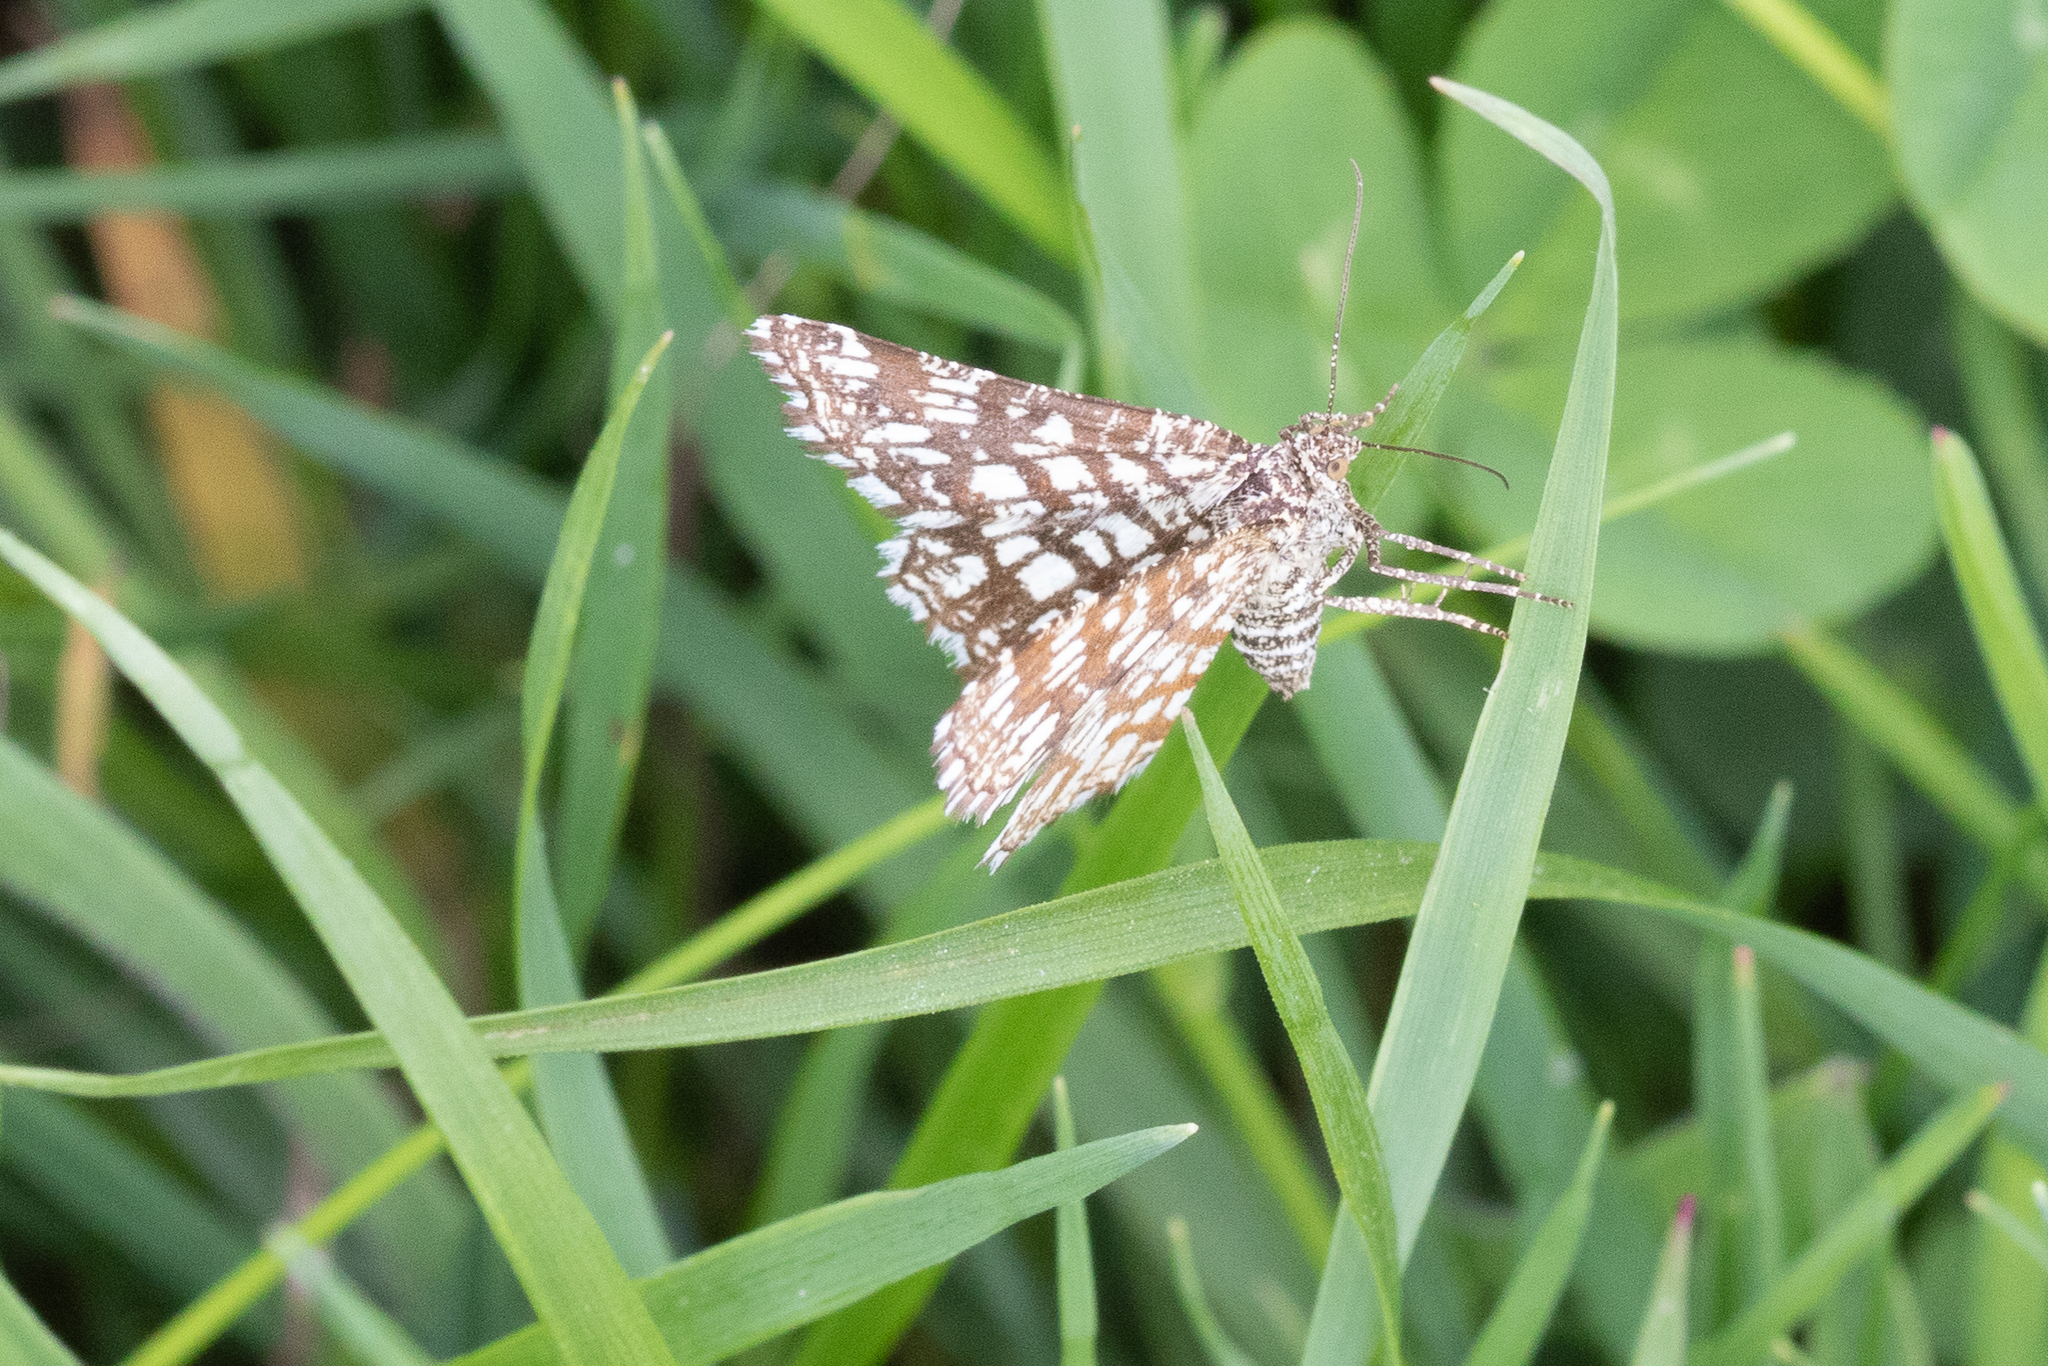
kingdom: Animalia
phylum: Arthropoda
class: Insecta
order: Lepidoptera
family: Geometridae
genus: Chiasmia
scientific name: Chiasmia clathrata
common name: Latticed heath
